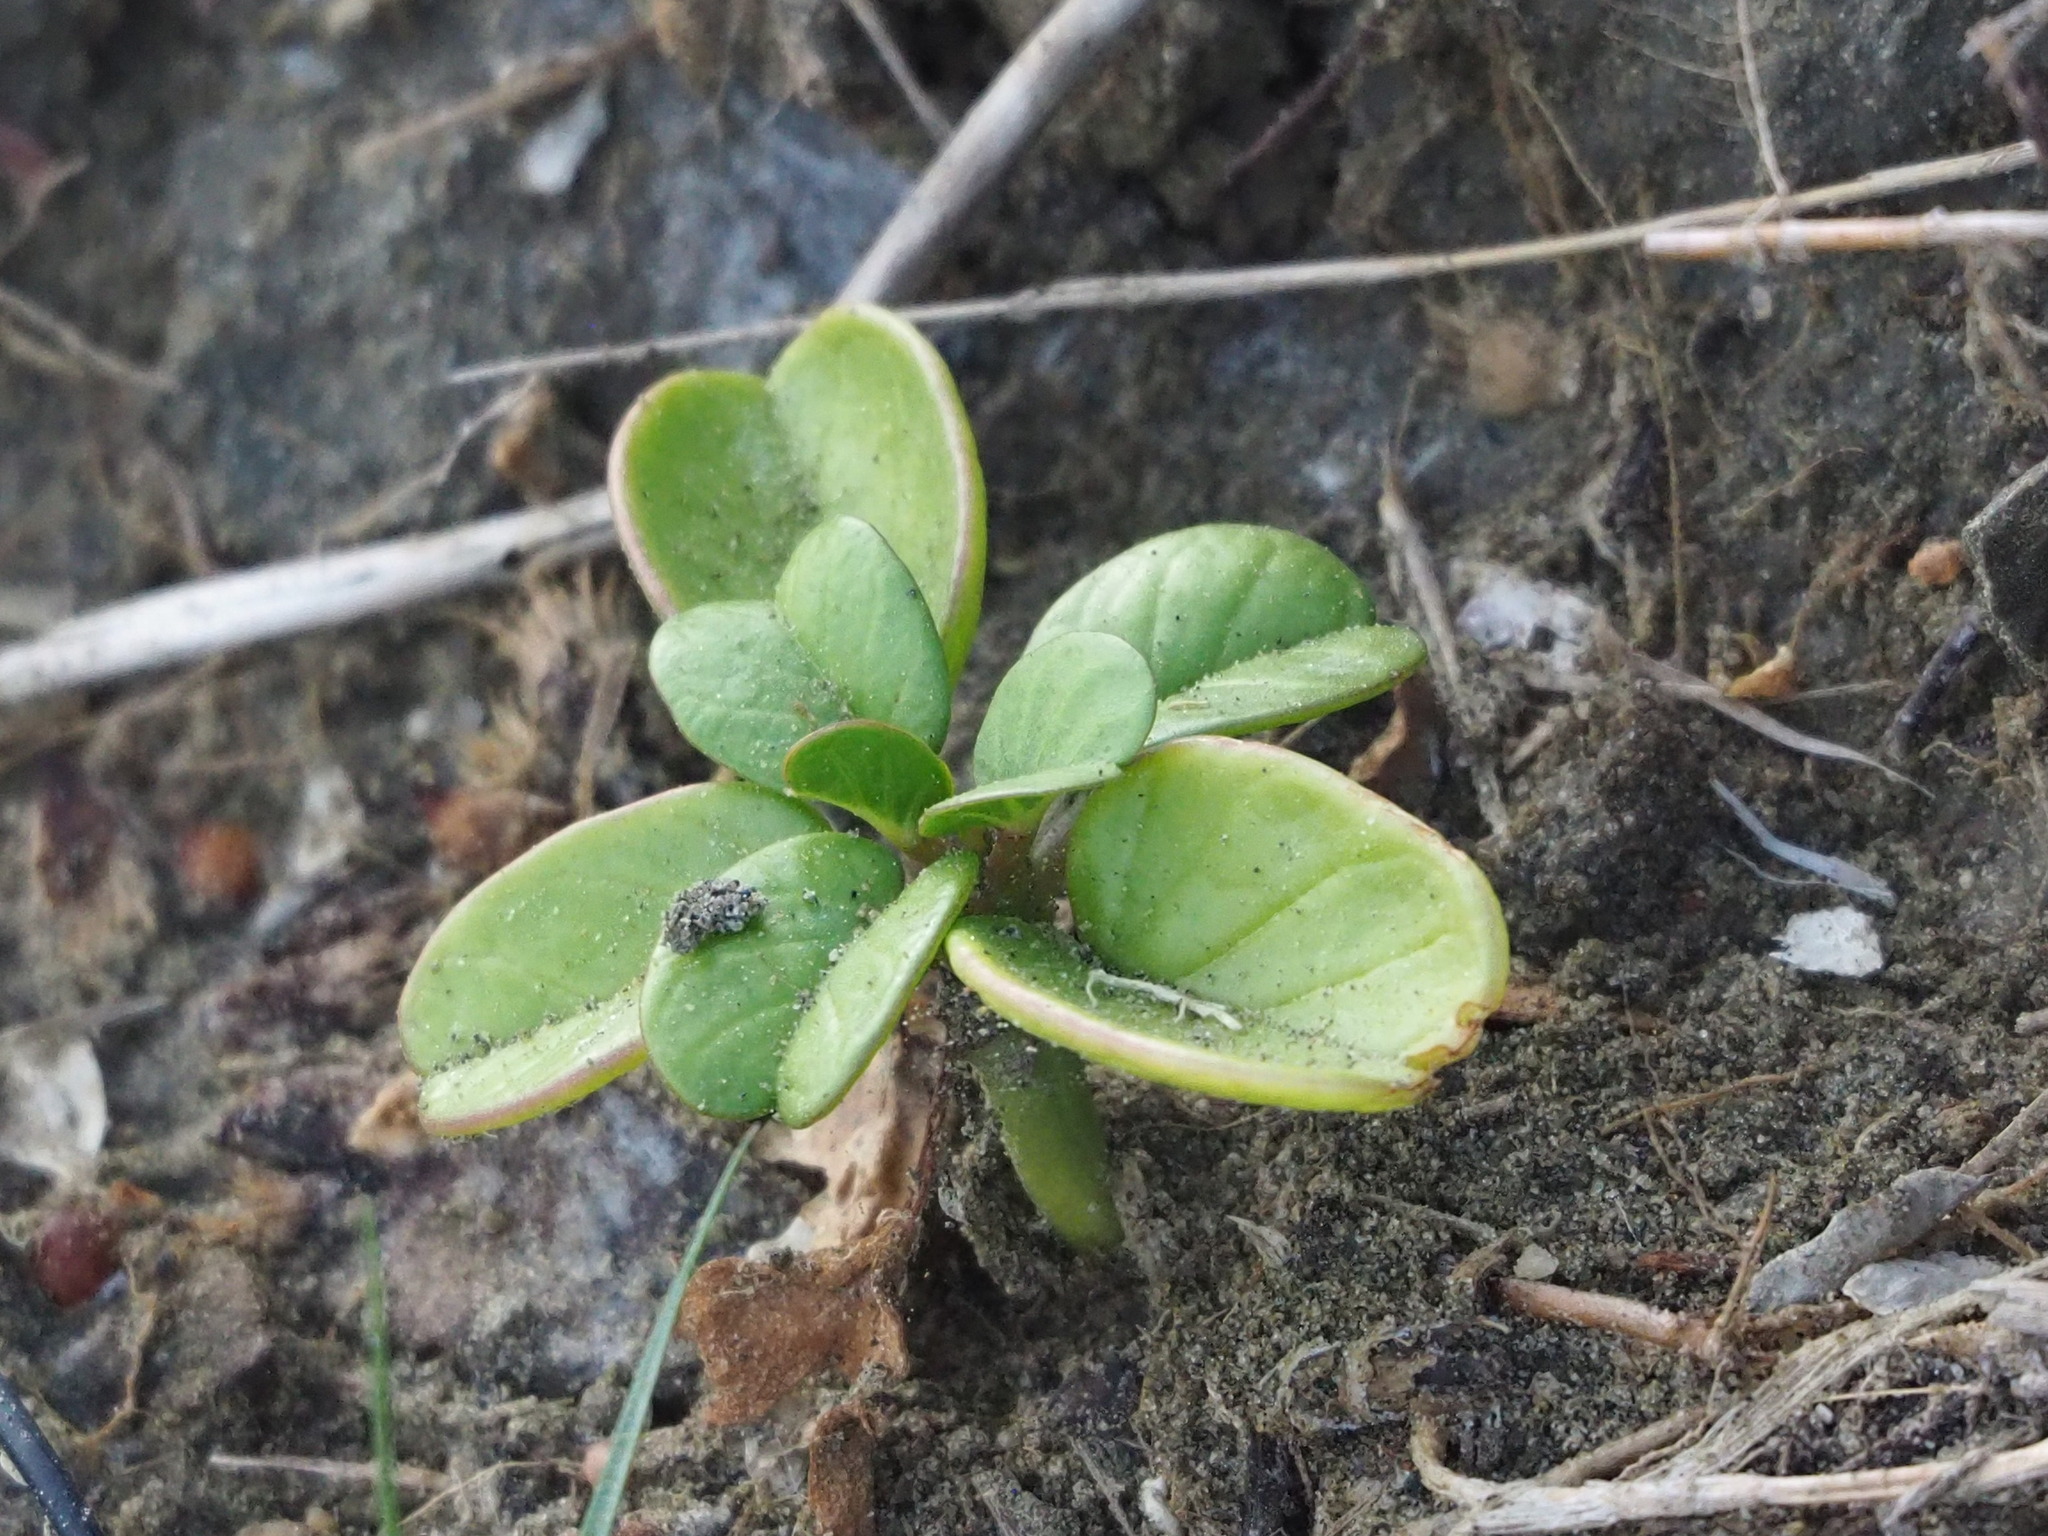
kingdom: Plantae
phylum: Tracheophyta
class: Magnoliopsida
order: Solanales
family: Convolvulaceae
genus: Ipomoea
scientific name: Ipomoea pes-caprae
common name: Beach morning glory
